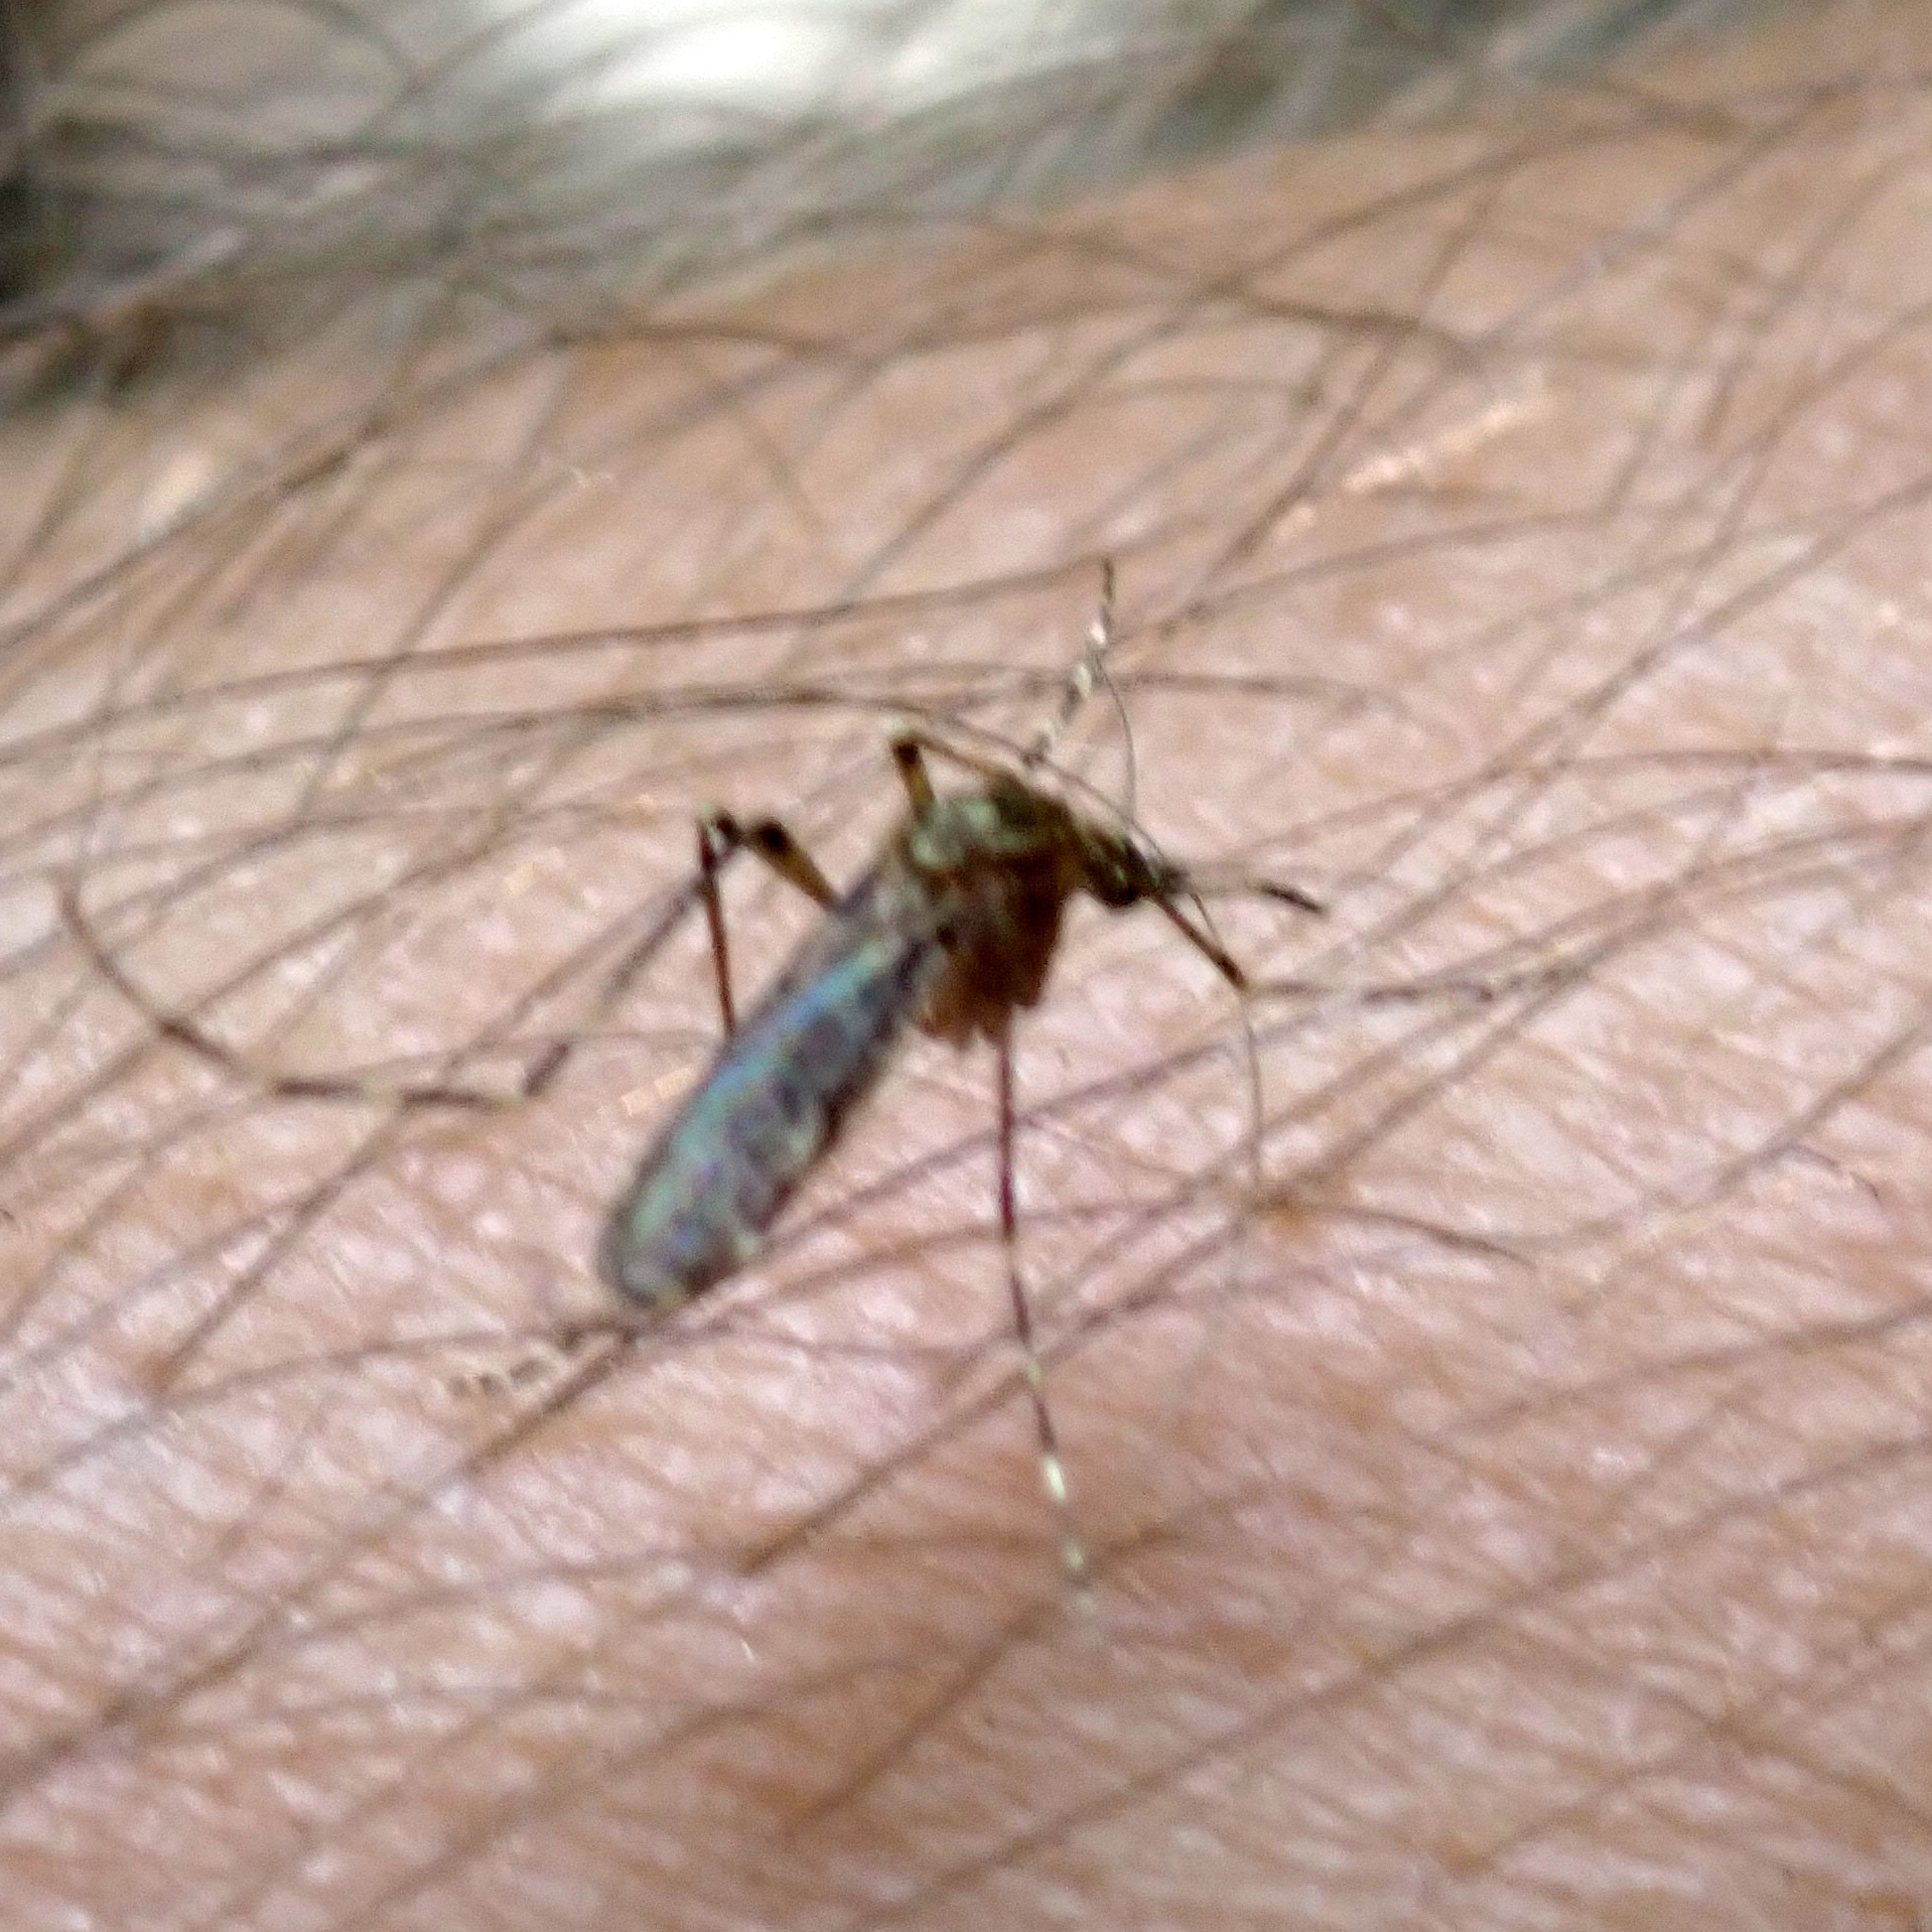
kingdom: Animalia
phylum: Arthropoda
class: Insecta
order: Diptera
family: Culicidae
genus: Coquillettidia
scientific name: Coquillettidia perturbans
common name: Cattail mosquito
